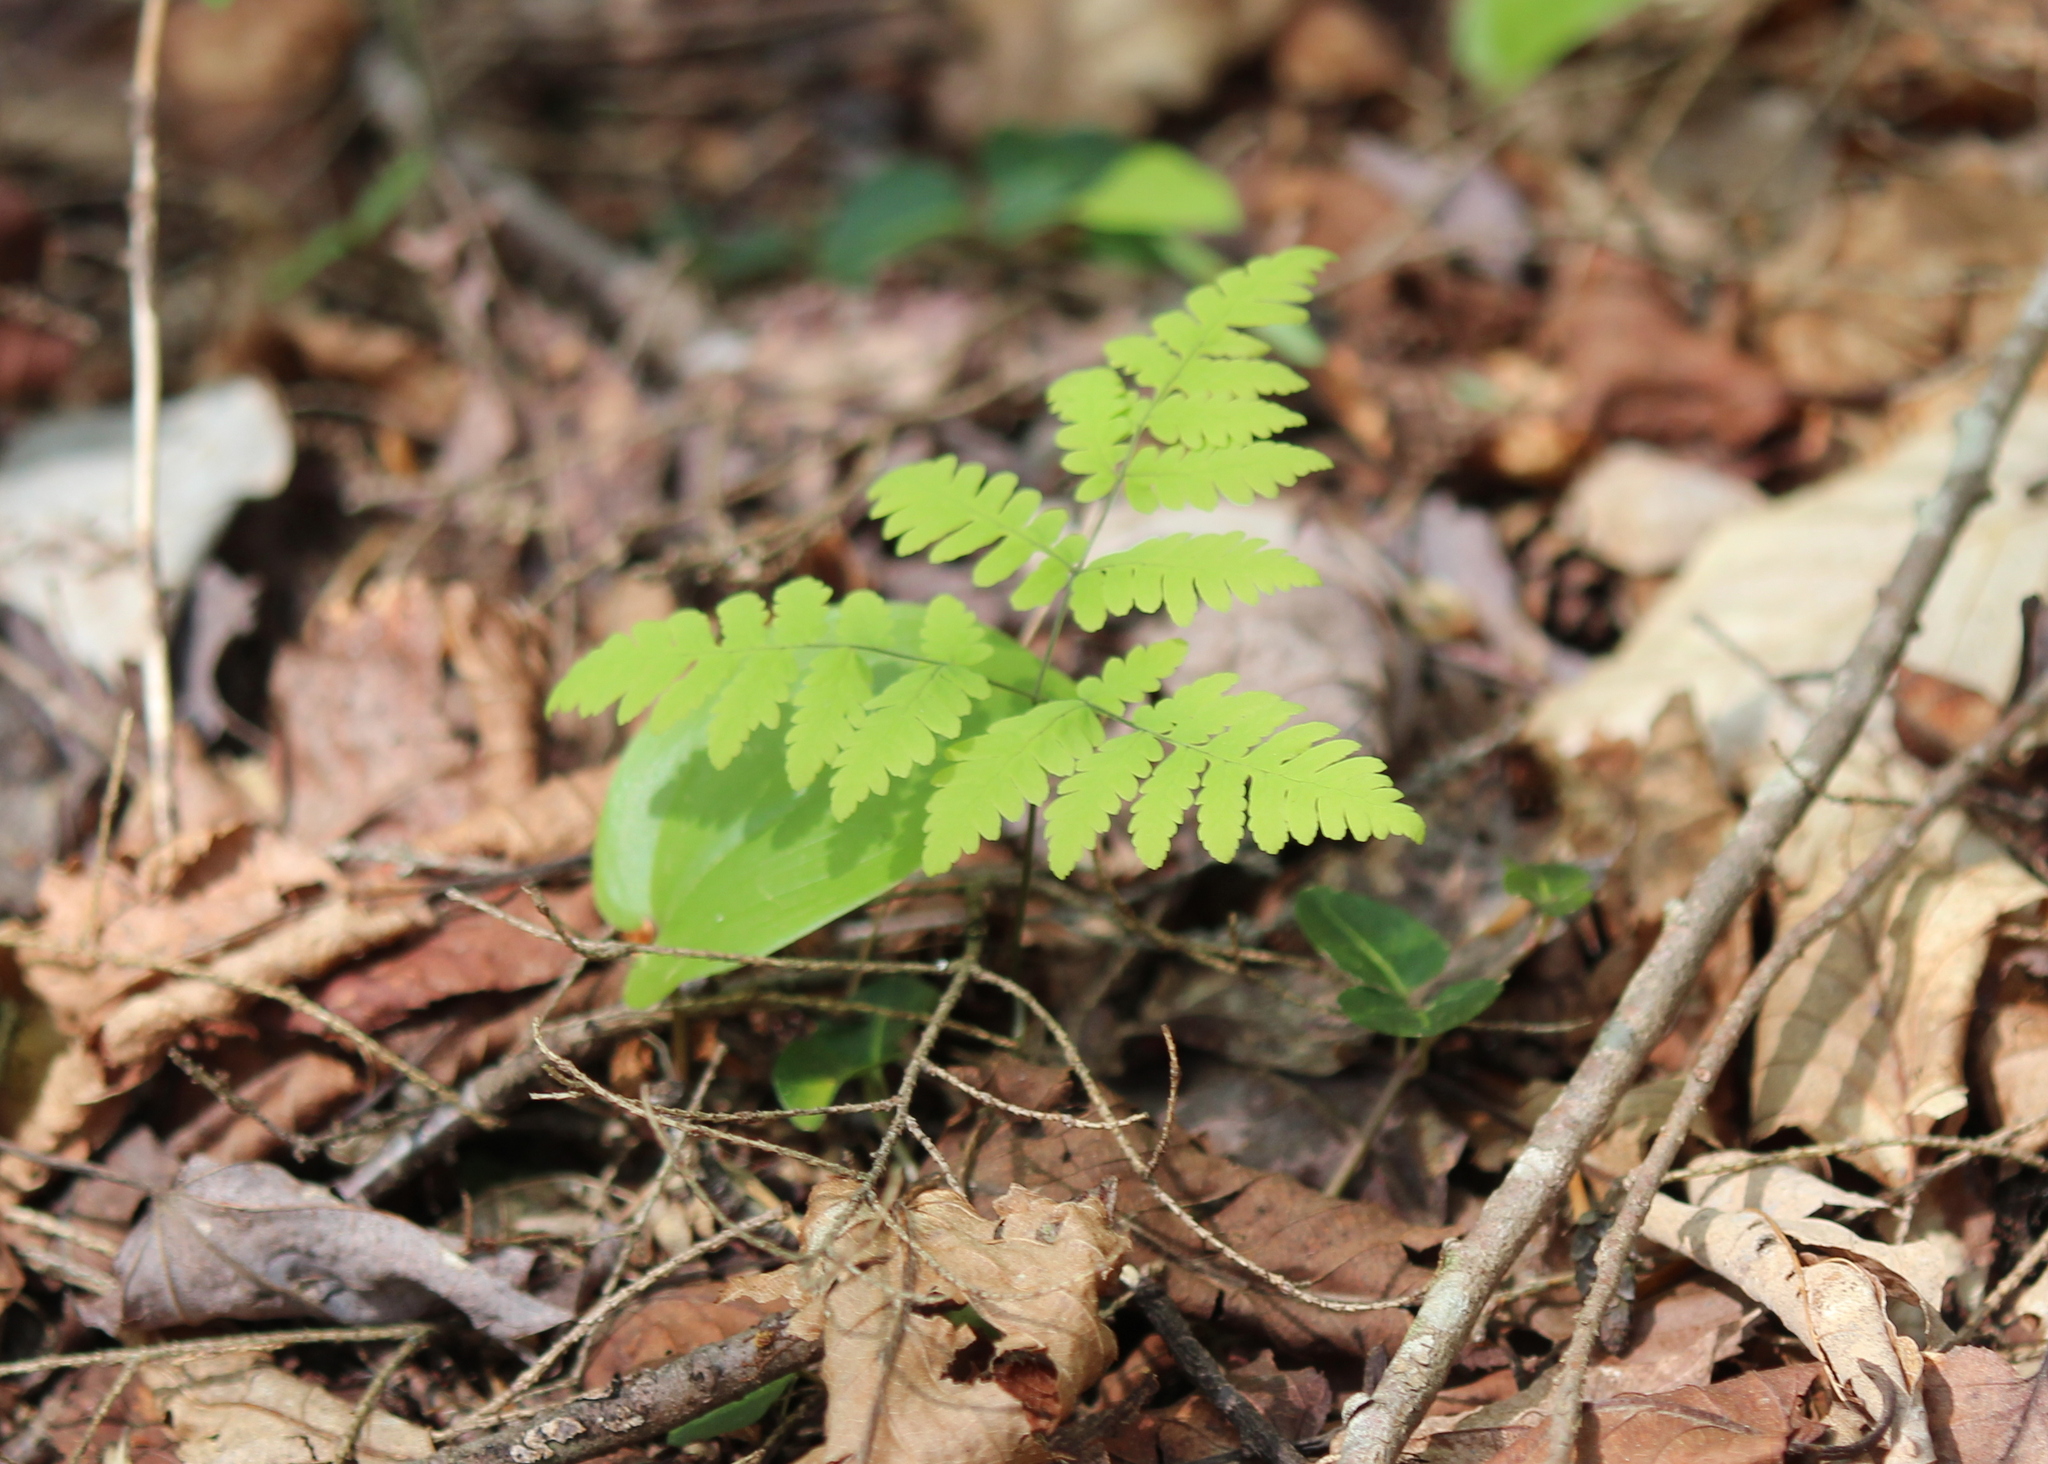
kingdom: Plantae
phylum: Tracheophyta
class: Polypodiopsida
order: Polypodiales
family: Cystopteridaceae
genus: Gymnocarpium
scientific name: Gymnocarpium dryopteris
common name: Oak fern
